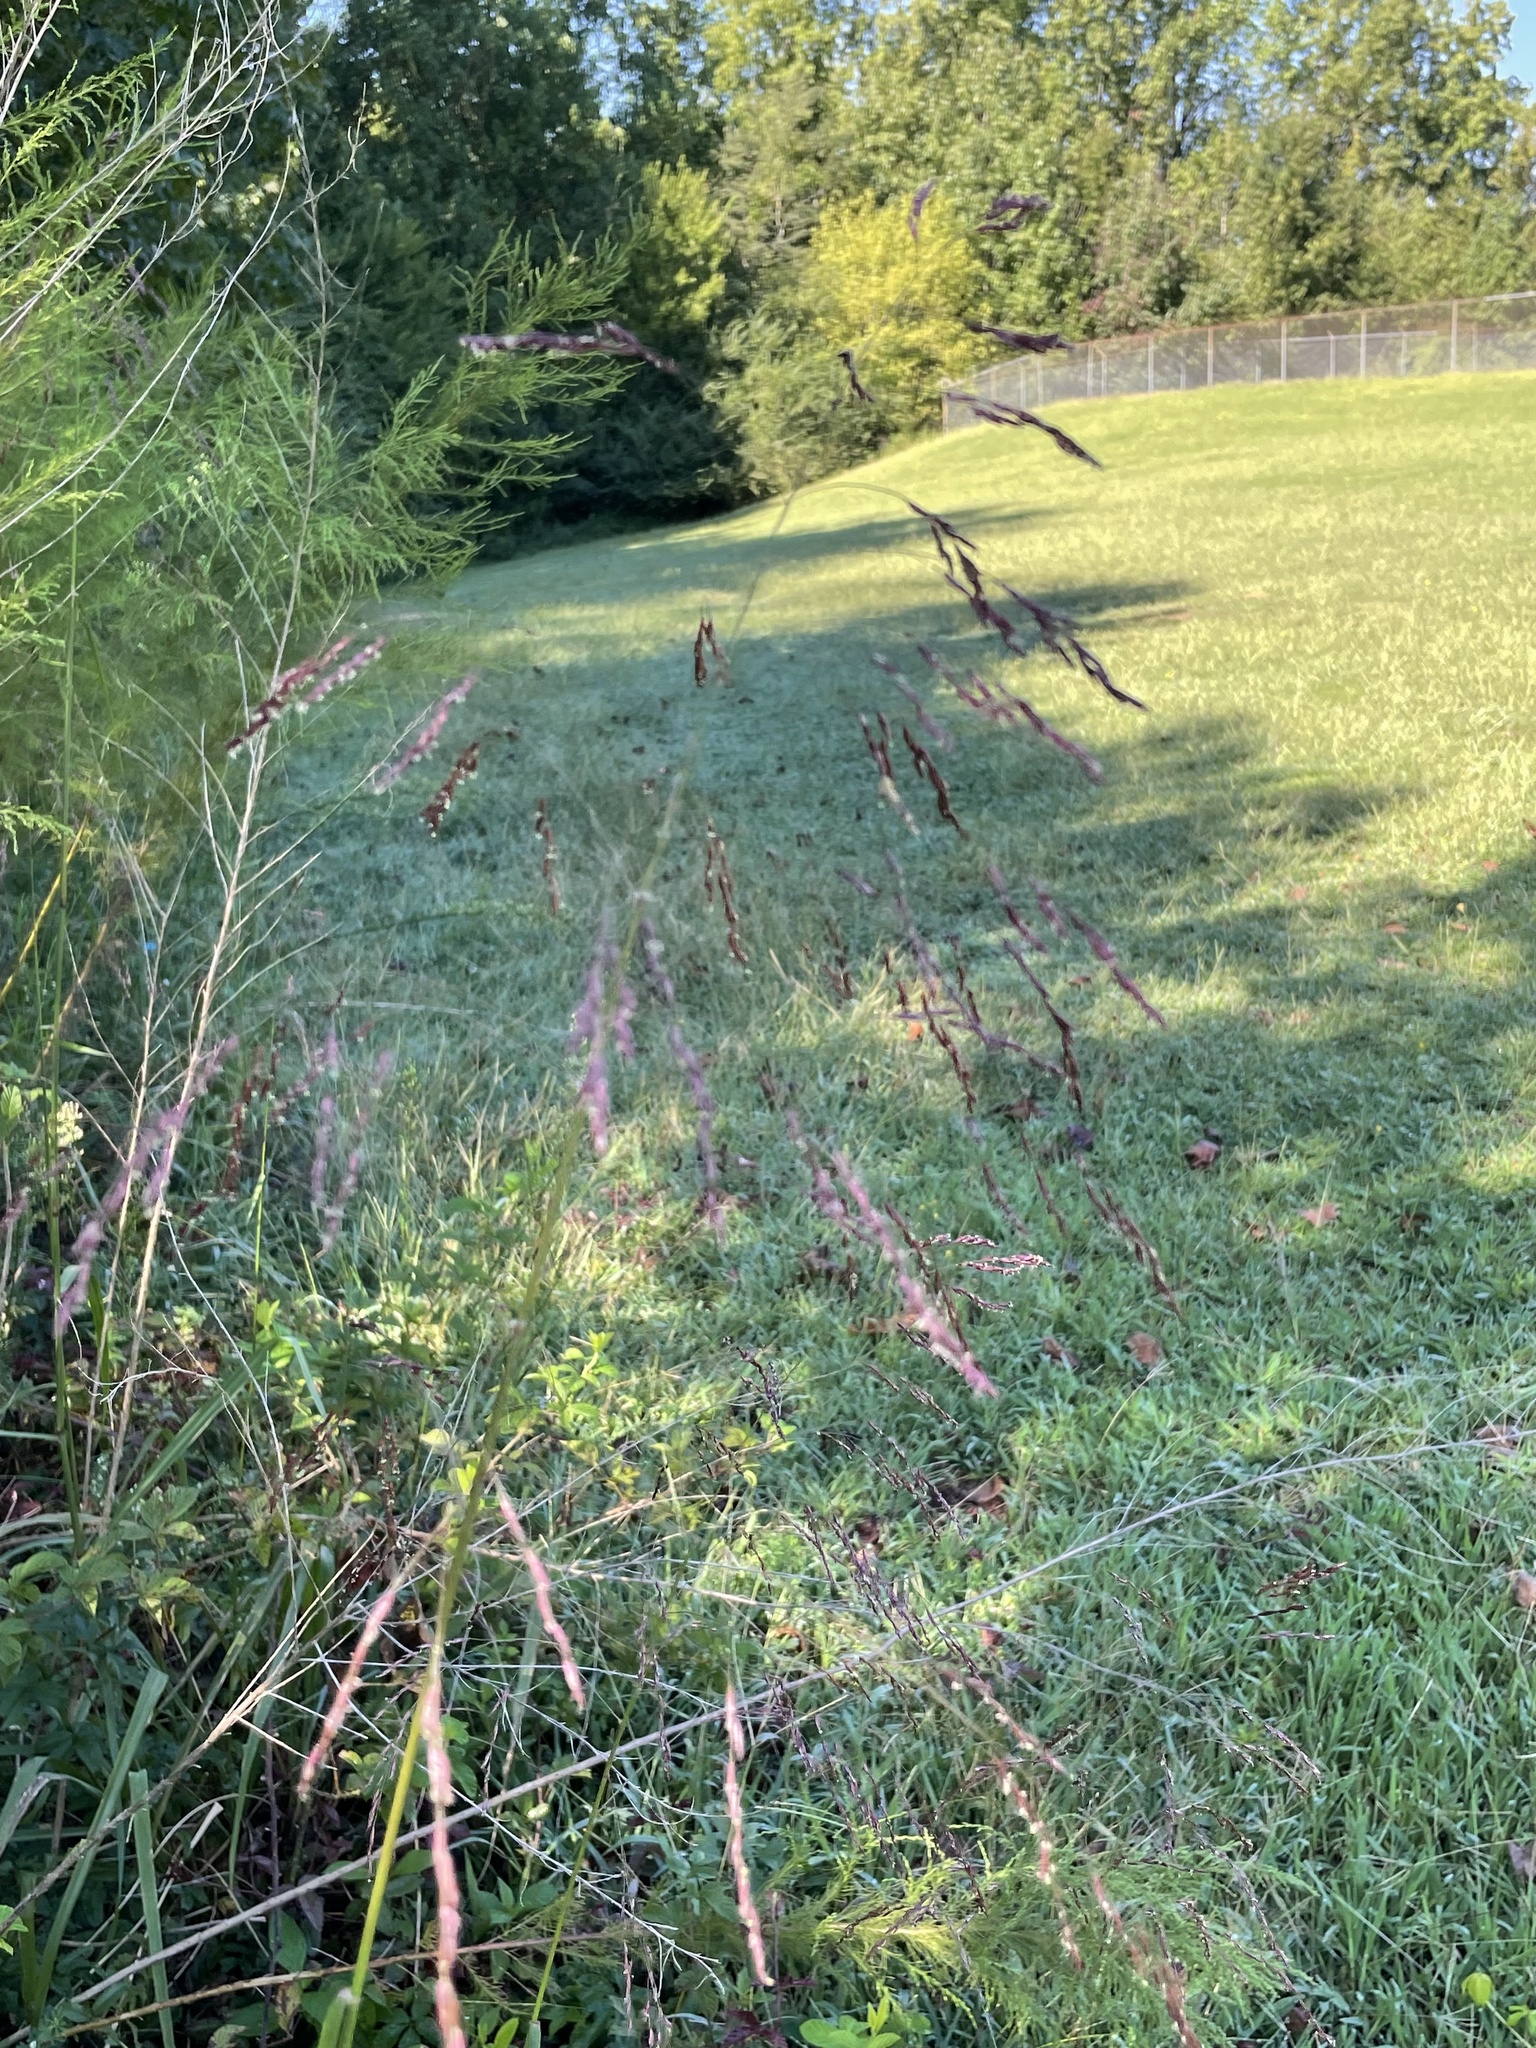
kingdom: Plantae
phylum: Tracheophyta
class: Liliopsida
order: Poales
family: Poaceae
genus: Tridens
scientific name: Tridens flavus
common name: Purpletop
